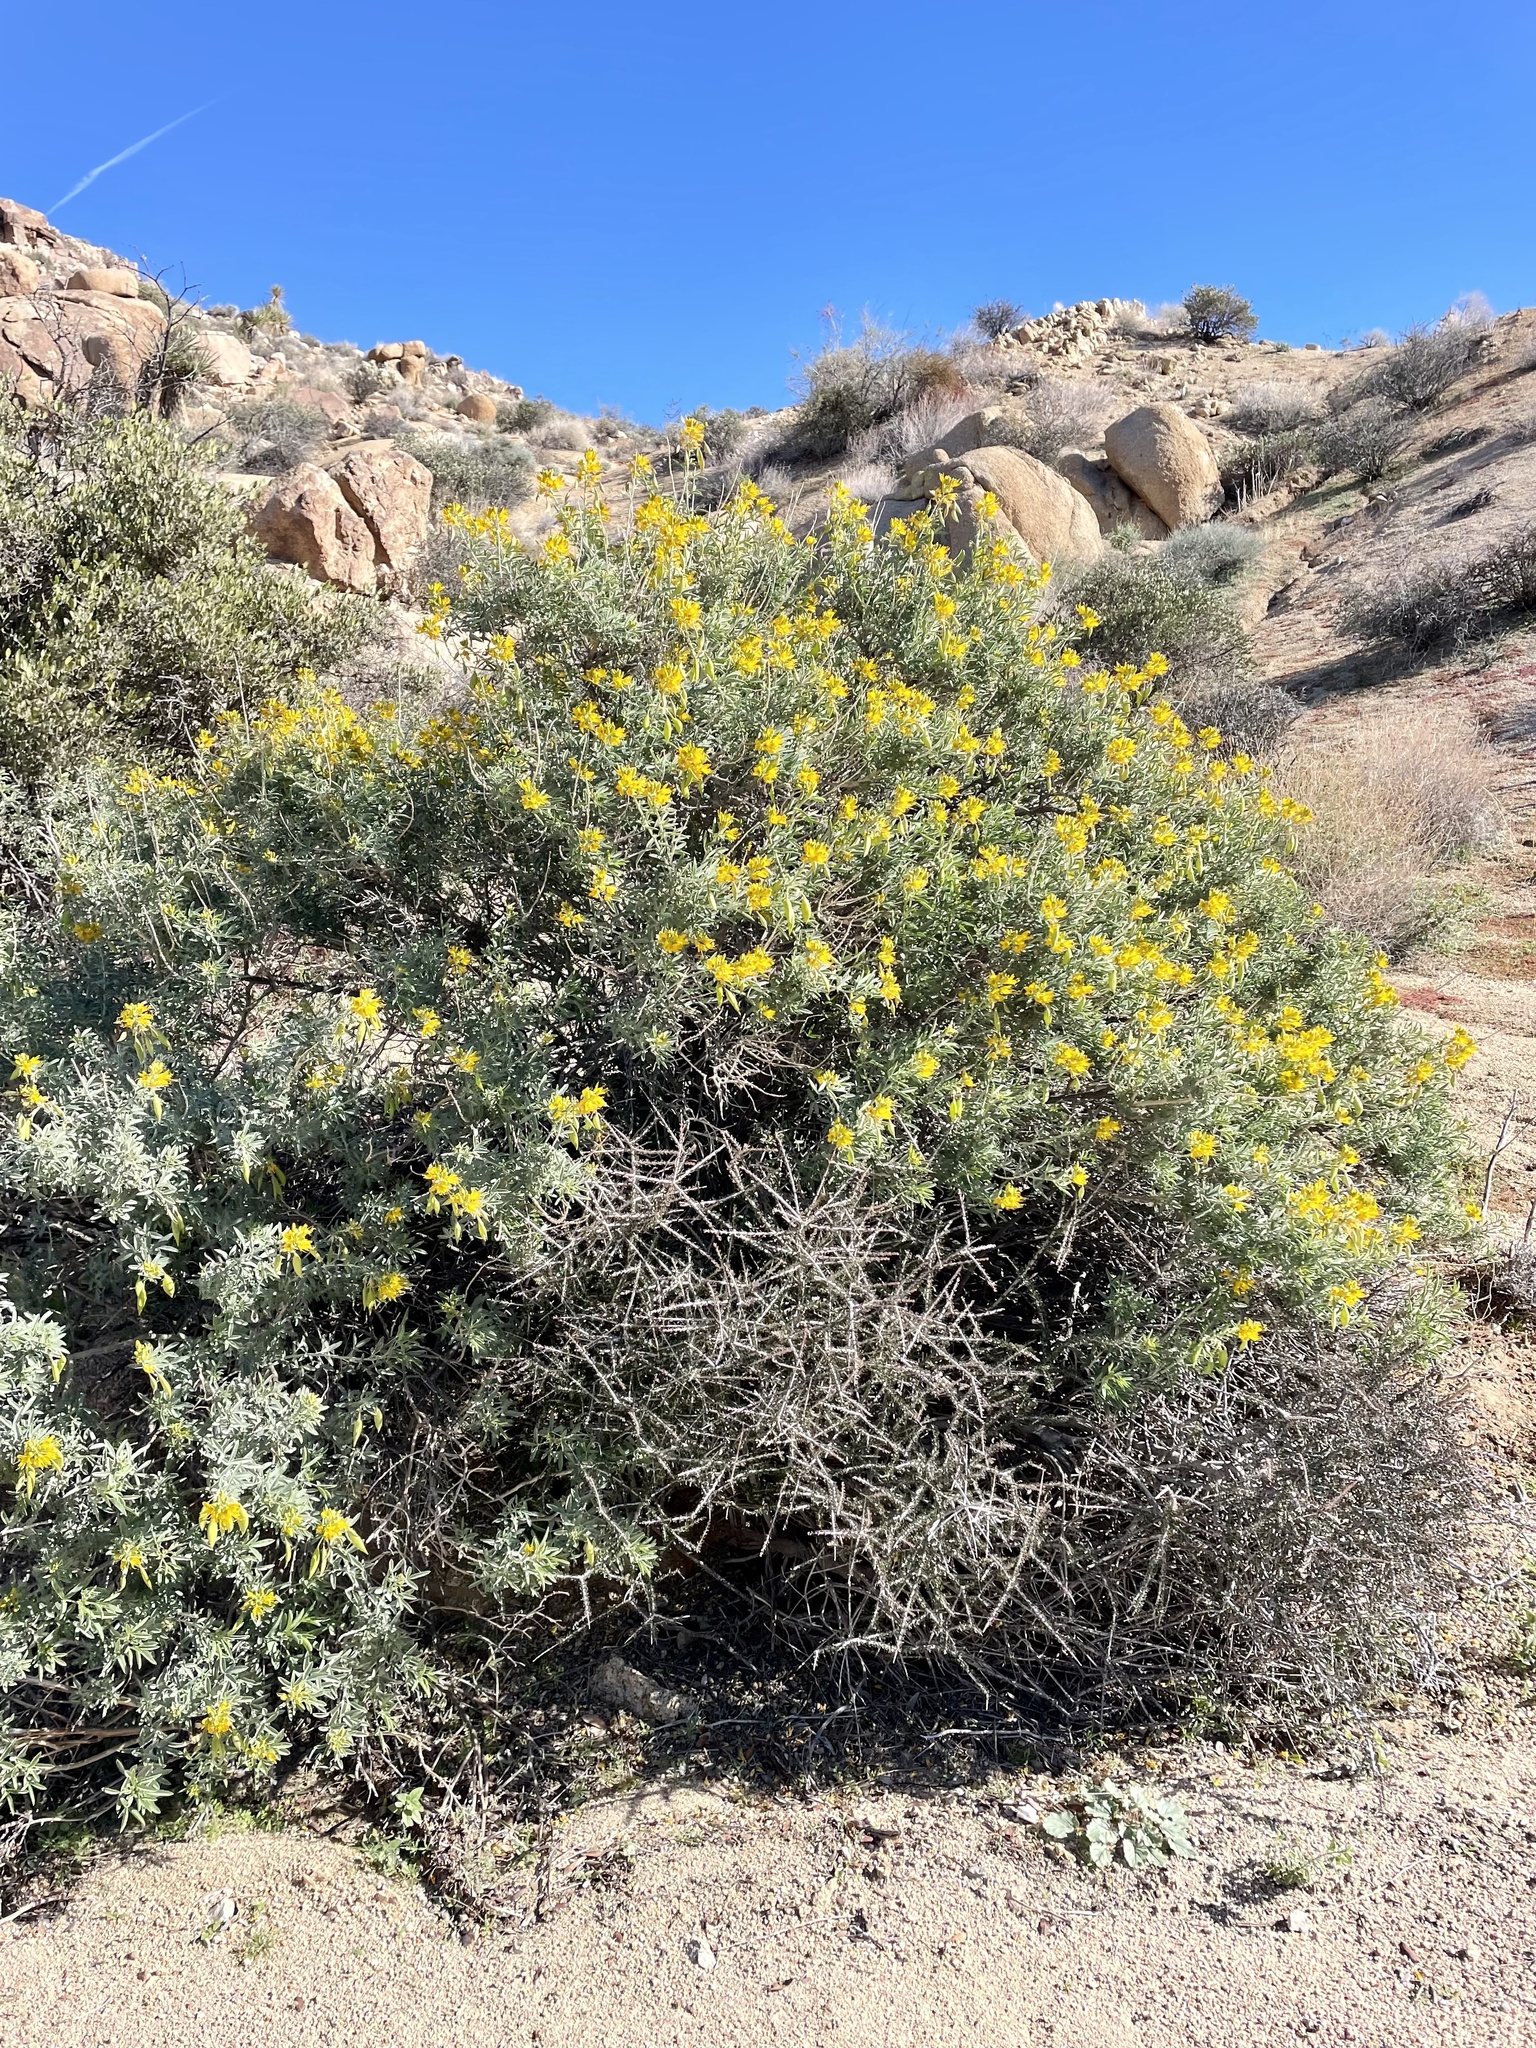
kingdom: Plantae
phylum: Tracheophyta
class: Magnoliopsida
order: Brassicales
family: Cleomaceae
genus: Cleomella
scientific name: Cleomella arborea
